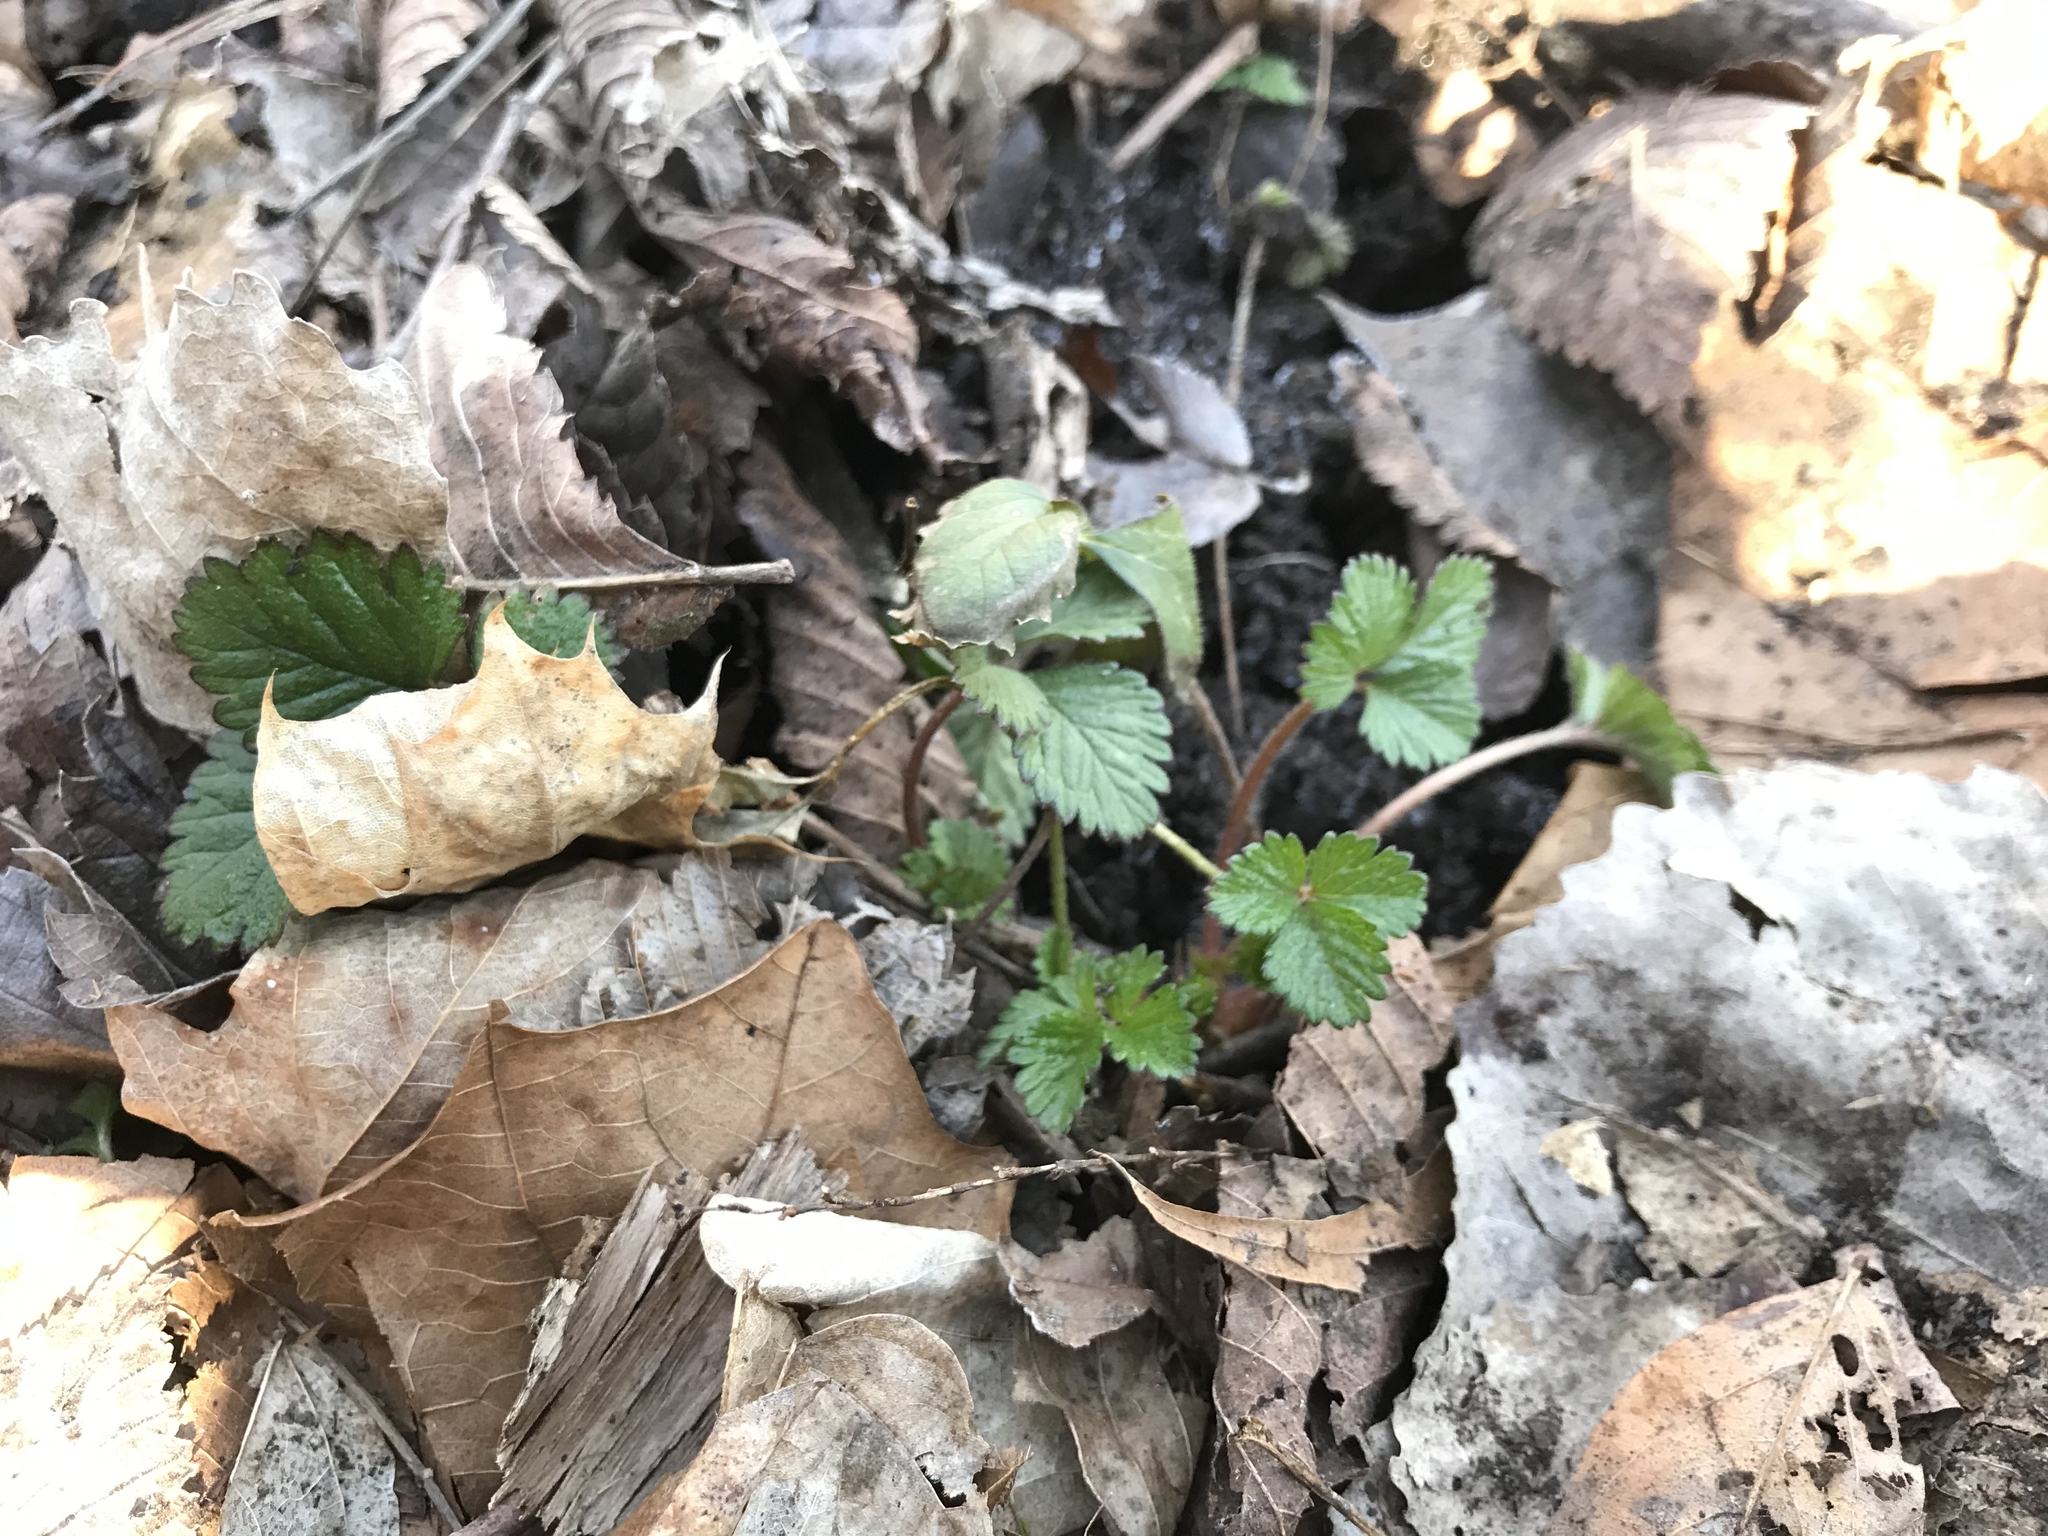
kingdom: Plantae
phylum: Tracheophyta
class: Magnoliopsida
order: Rosales
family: Rosaceae
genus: Potentilla
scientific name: Potentilla indica
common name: Yellow-flowered strawberry
